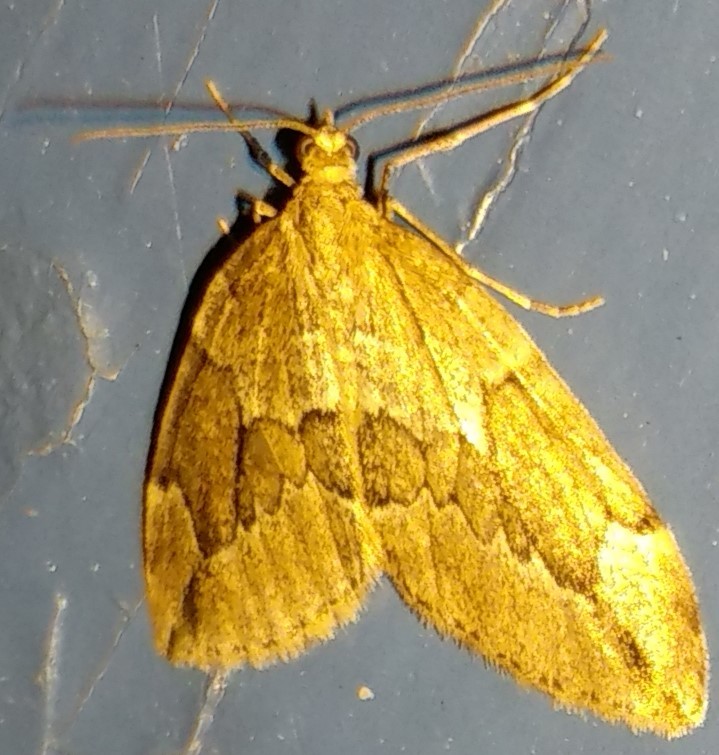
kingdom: Animalia
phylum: Arthropoda
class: Insecta
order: Lepidoptera
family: Geometridae
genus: Thera
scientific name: Thera juniperata
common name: Juniper carpet
